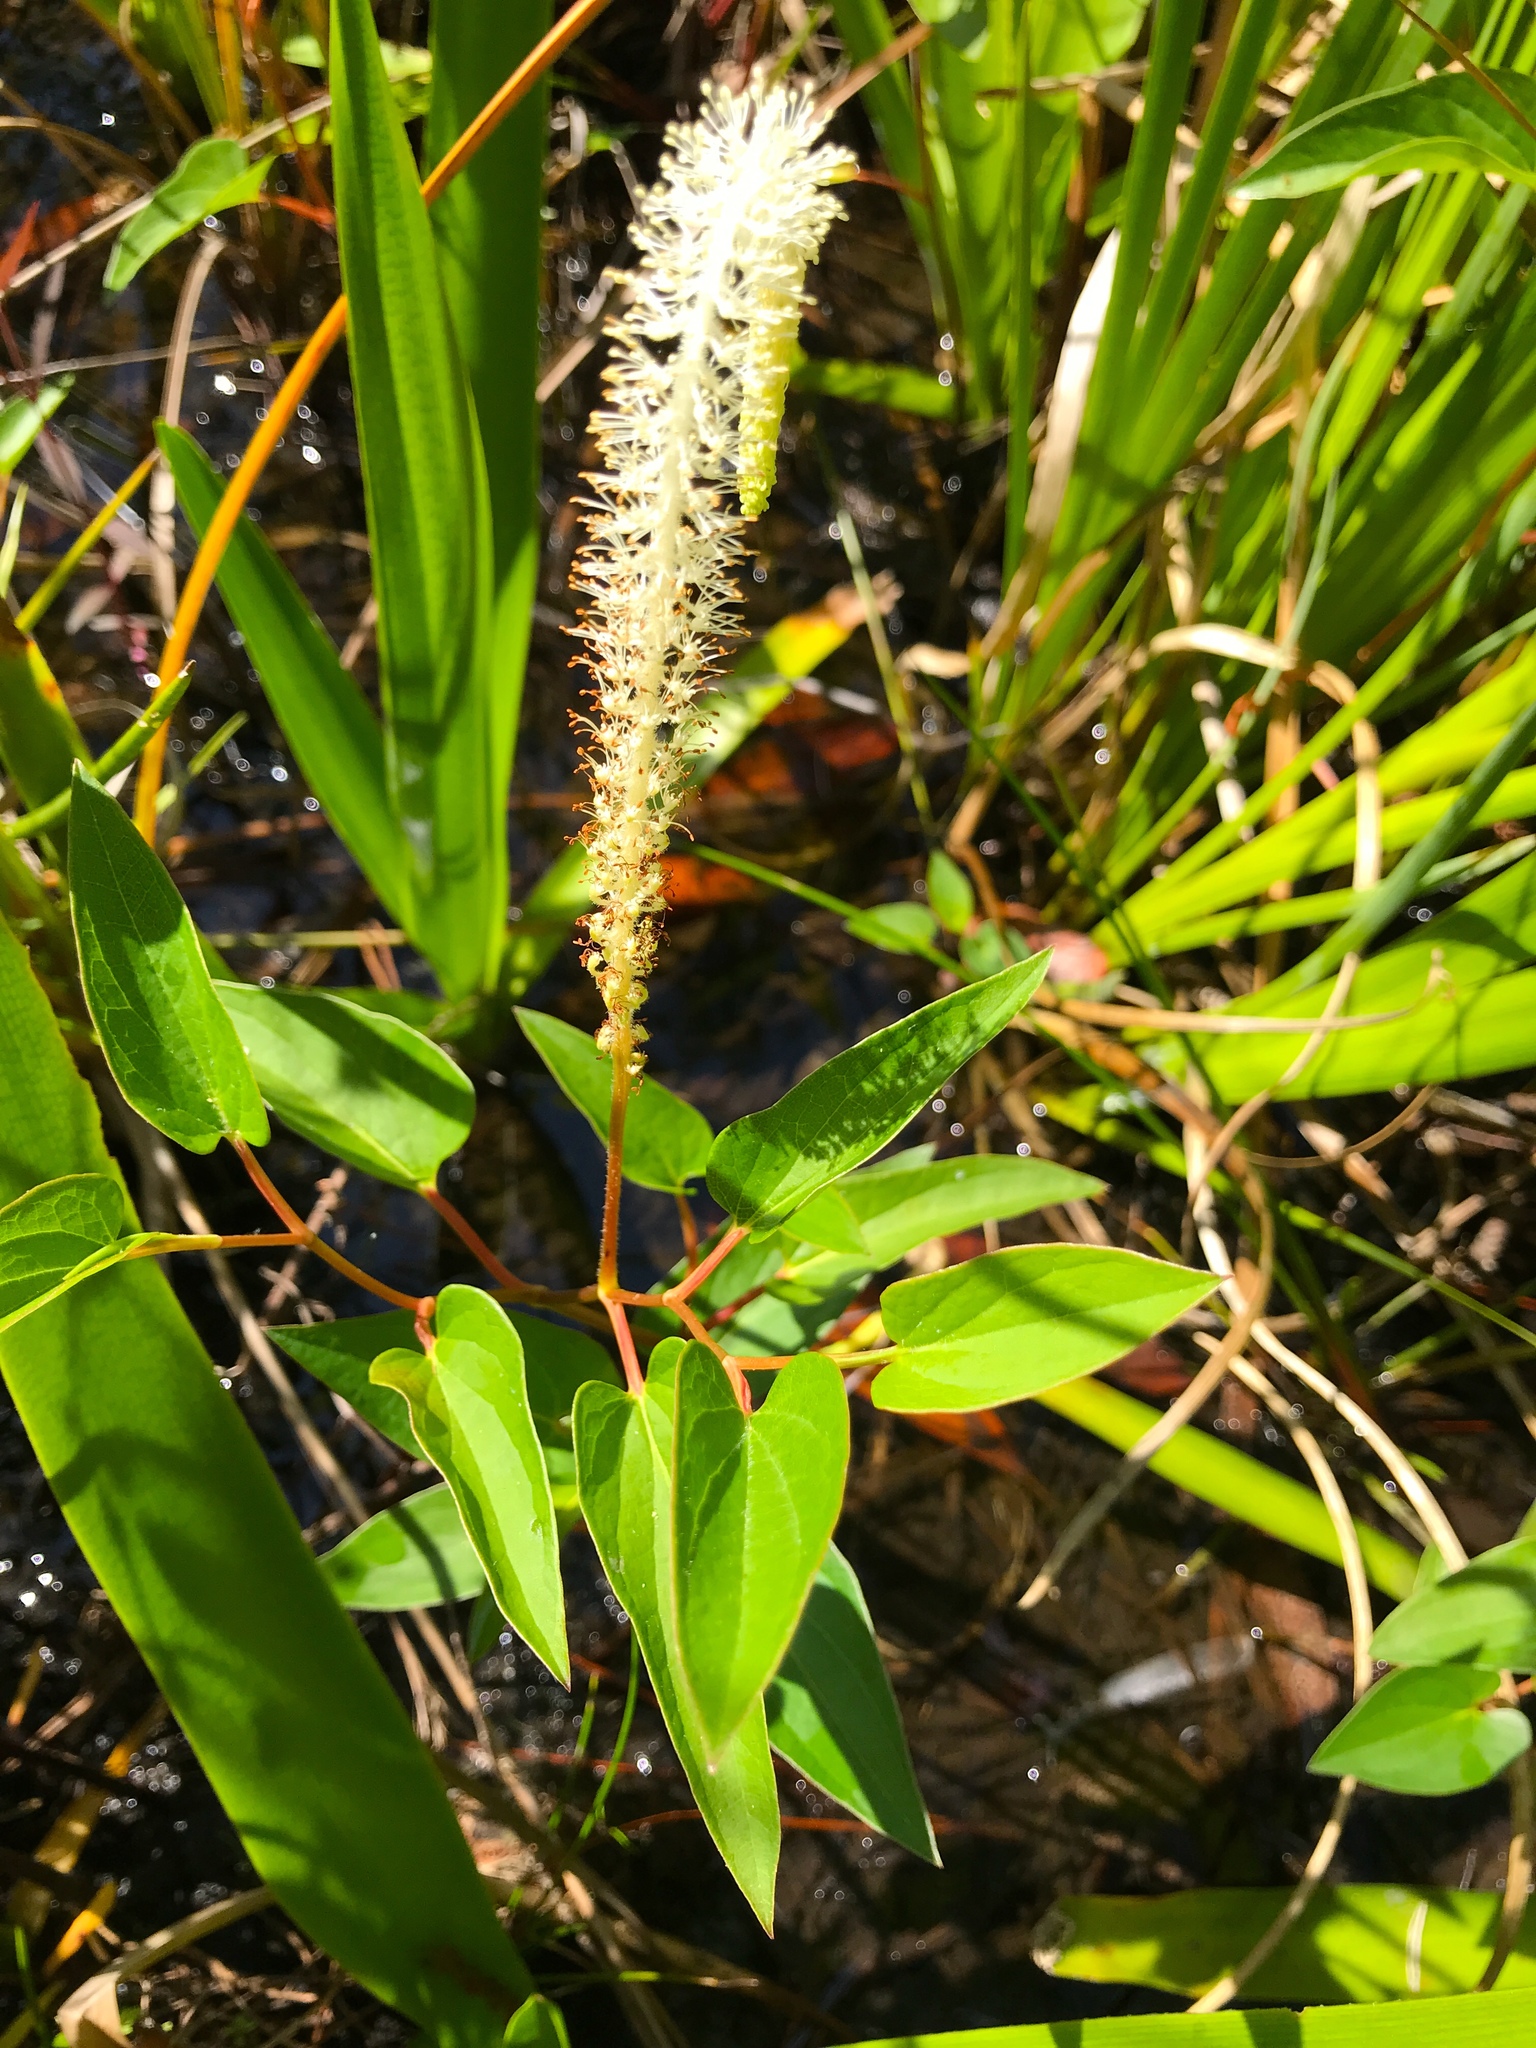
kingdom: Plantae
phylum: Tracheophyta
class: Magnoliopsida
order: Piperales
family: Saururaceae
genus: Saururus
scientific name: Saururus cernuus
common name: Lizard's-tail
